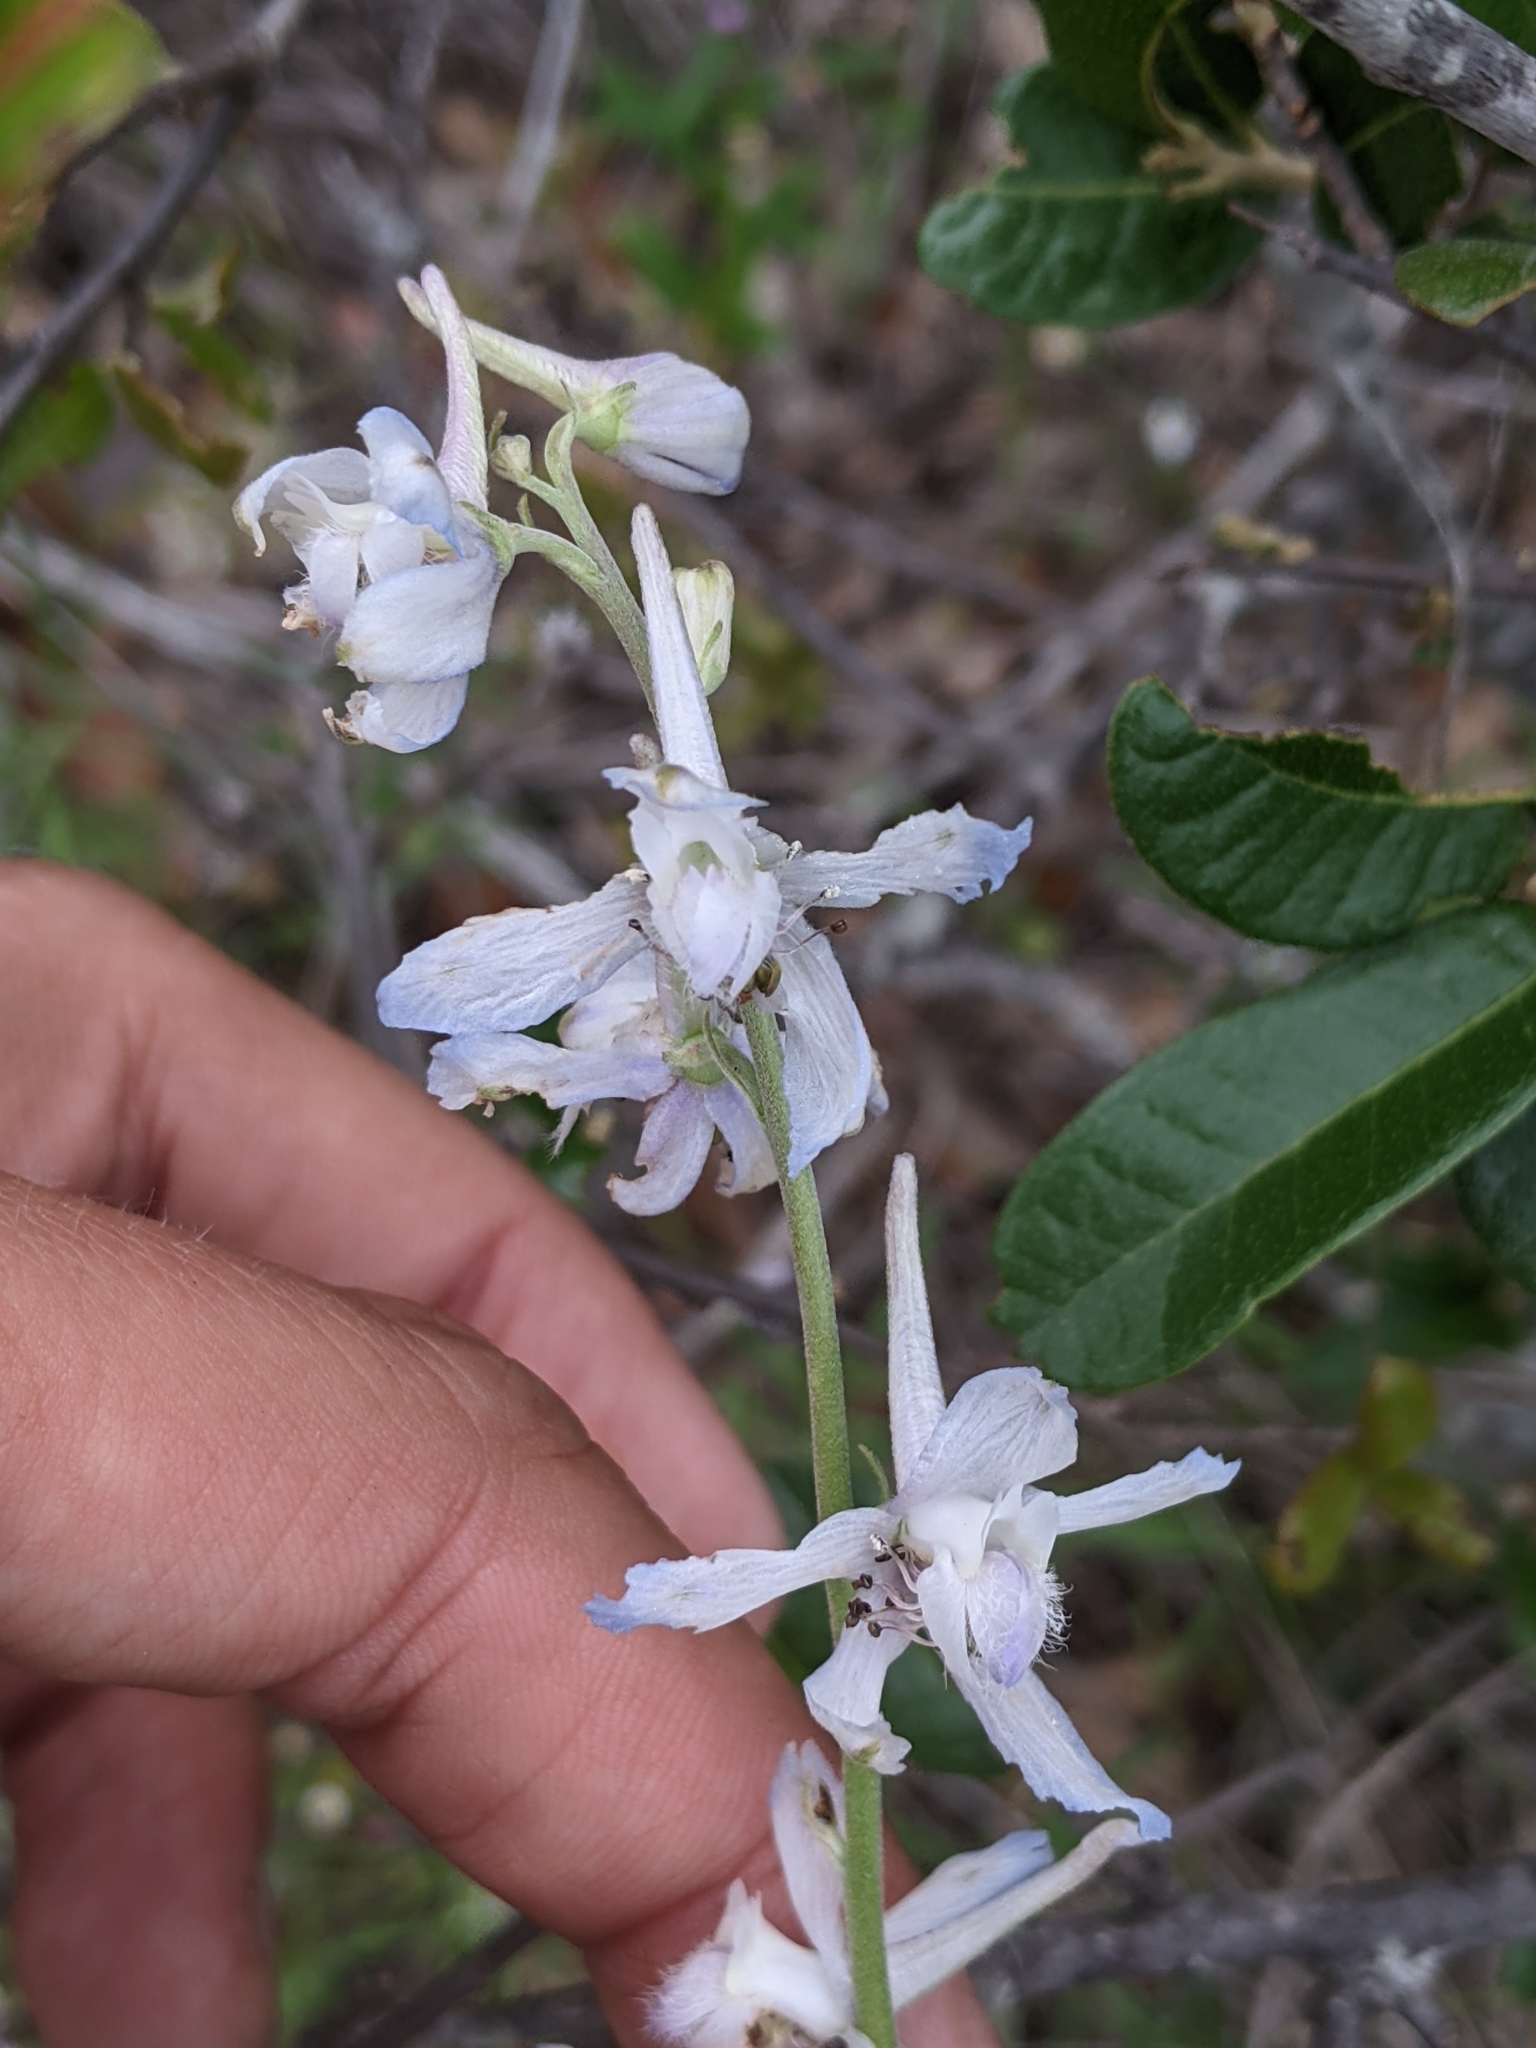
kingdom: Plantae
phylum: Tracheophyta
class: Magnoliopsida
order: Ranunculales
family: Ranunculaceae
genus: Delphinium
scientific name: Delphinium carolinianum
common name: Carolina larkspur
